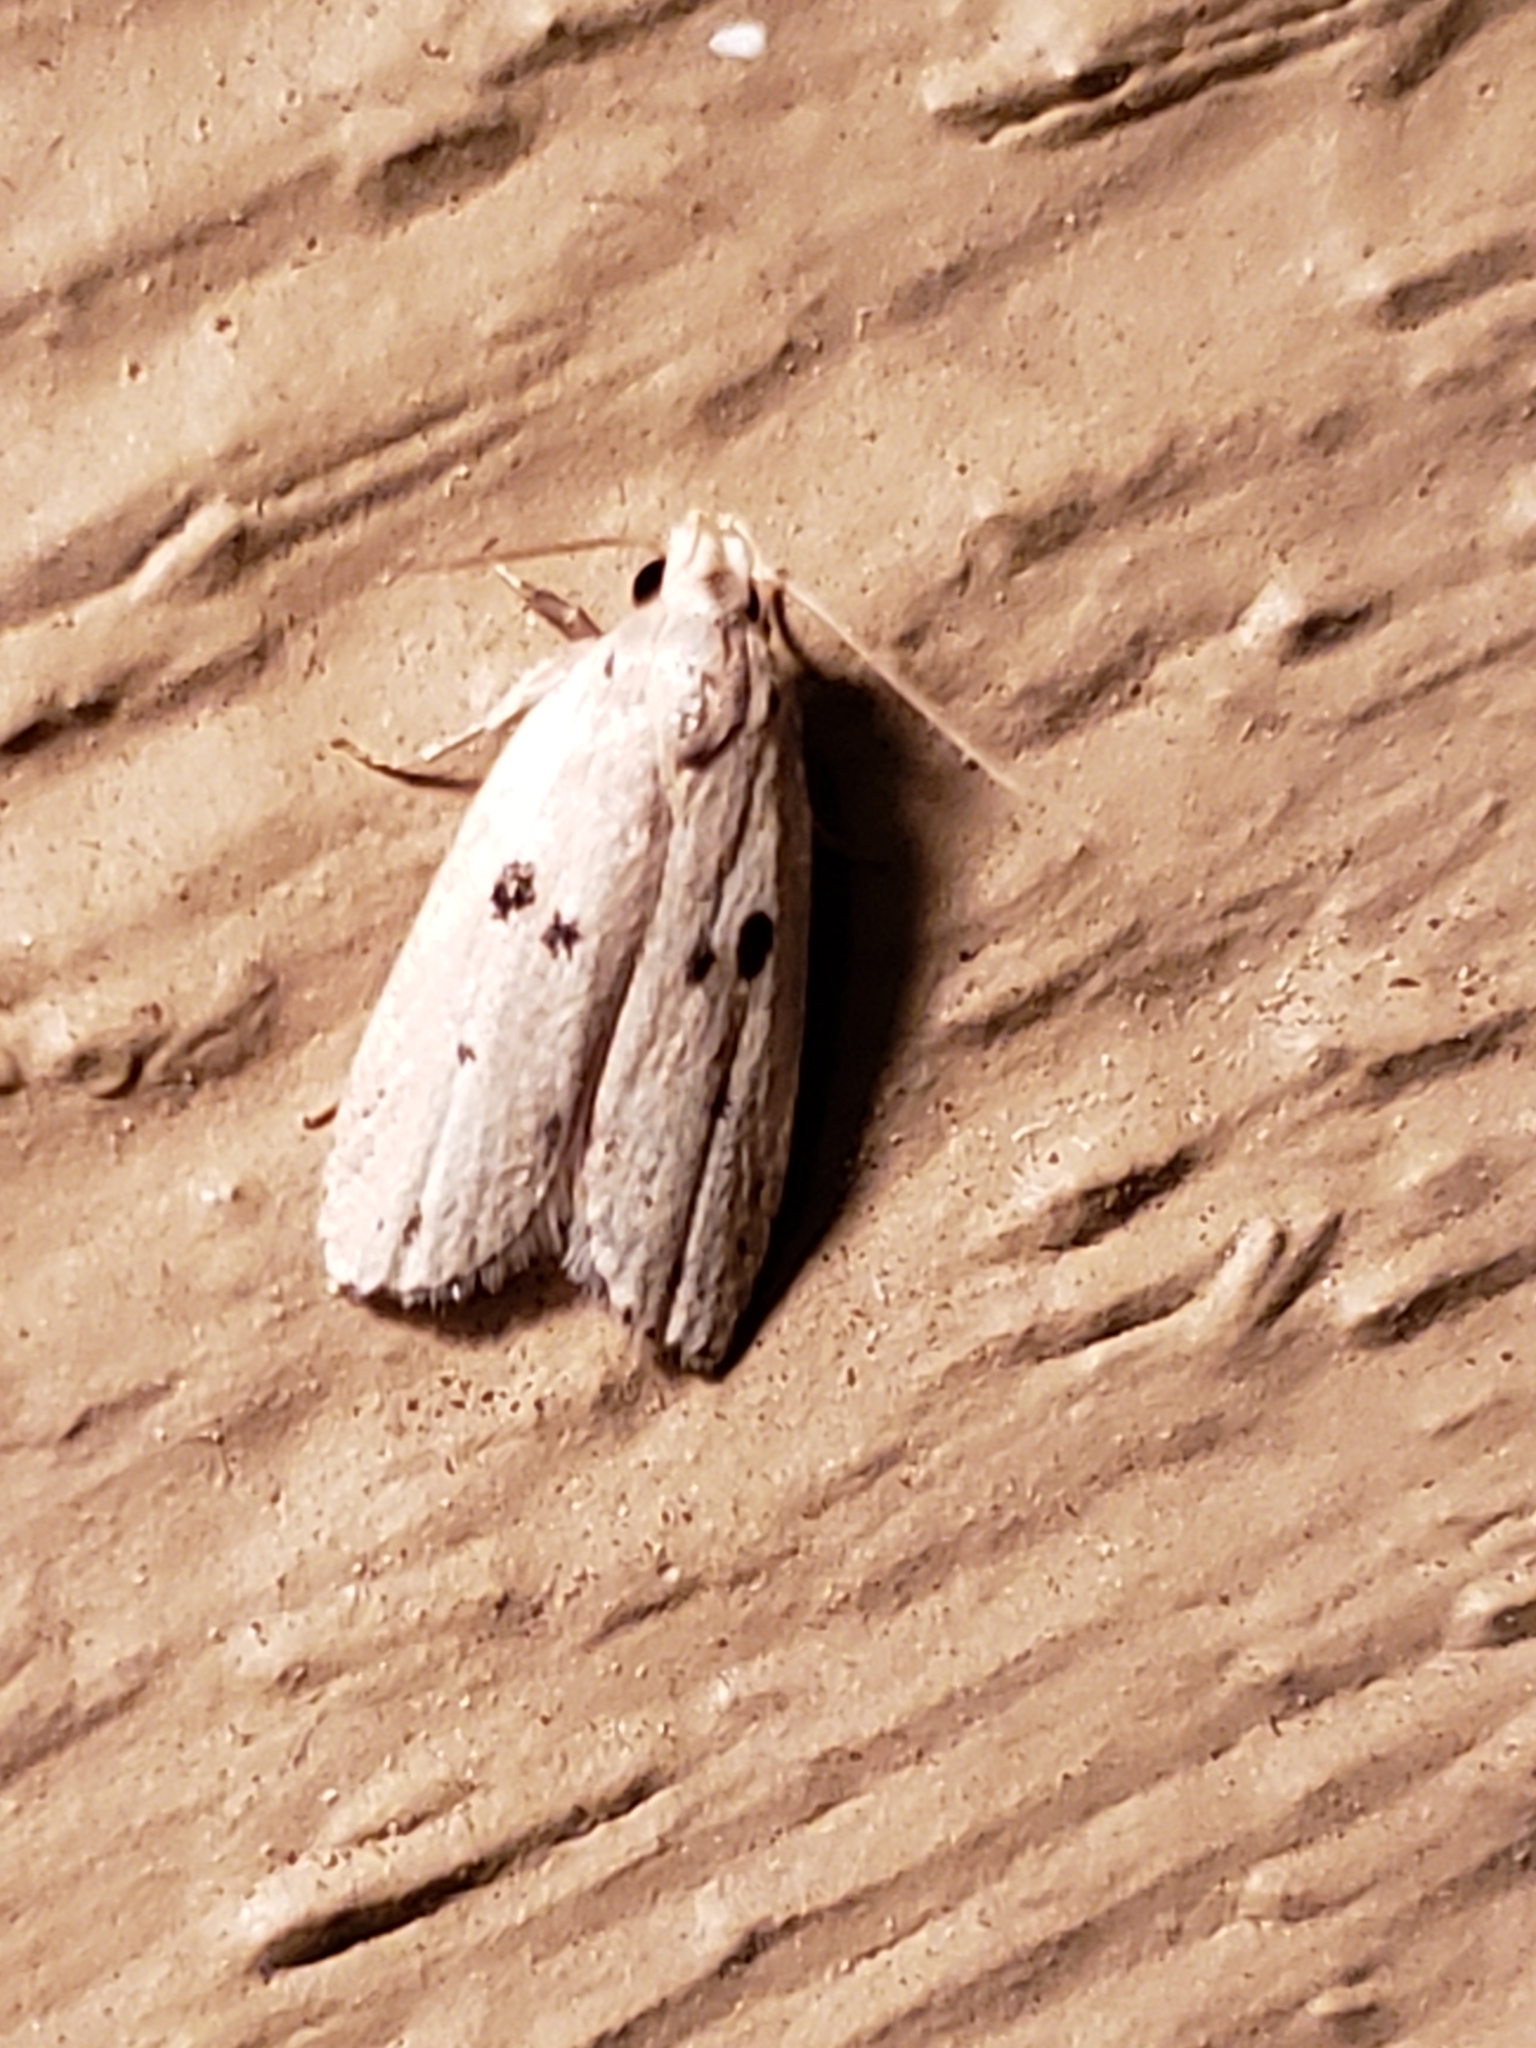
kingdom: Animalia
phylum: Arthropoda
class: Insecta
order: Lepidoptera
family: Peleopodidae
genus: Scythropiodes
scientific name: Scythropiodes issikii
